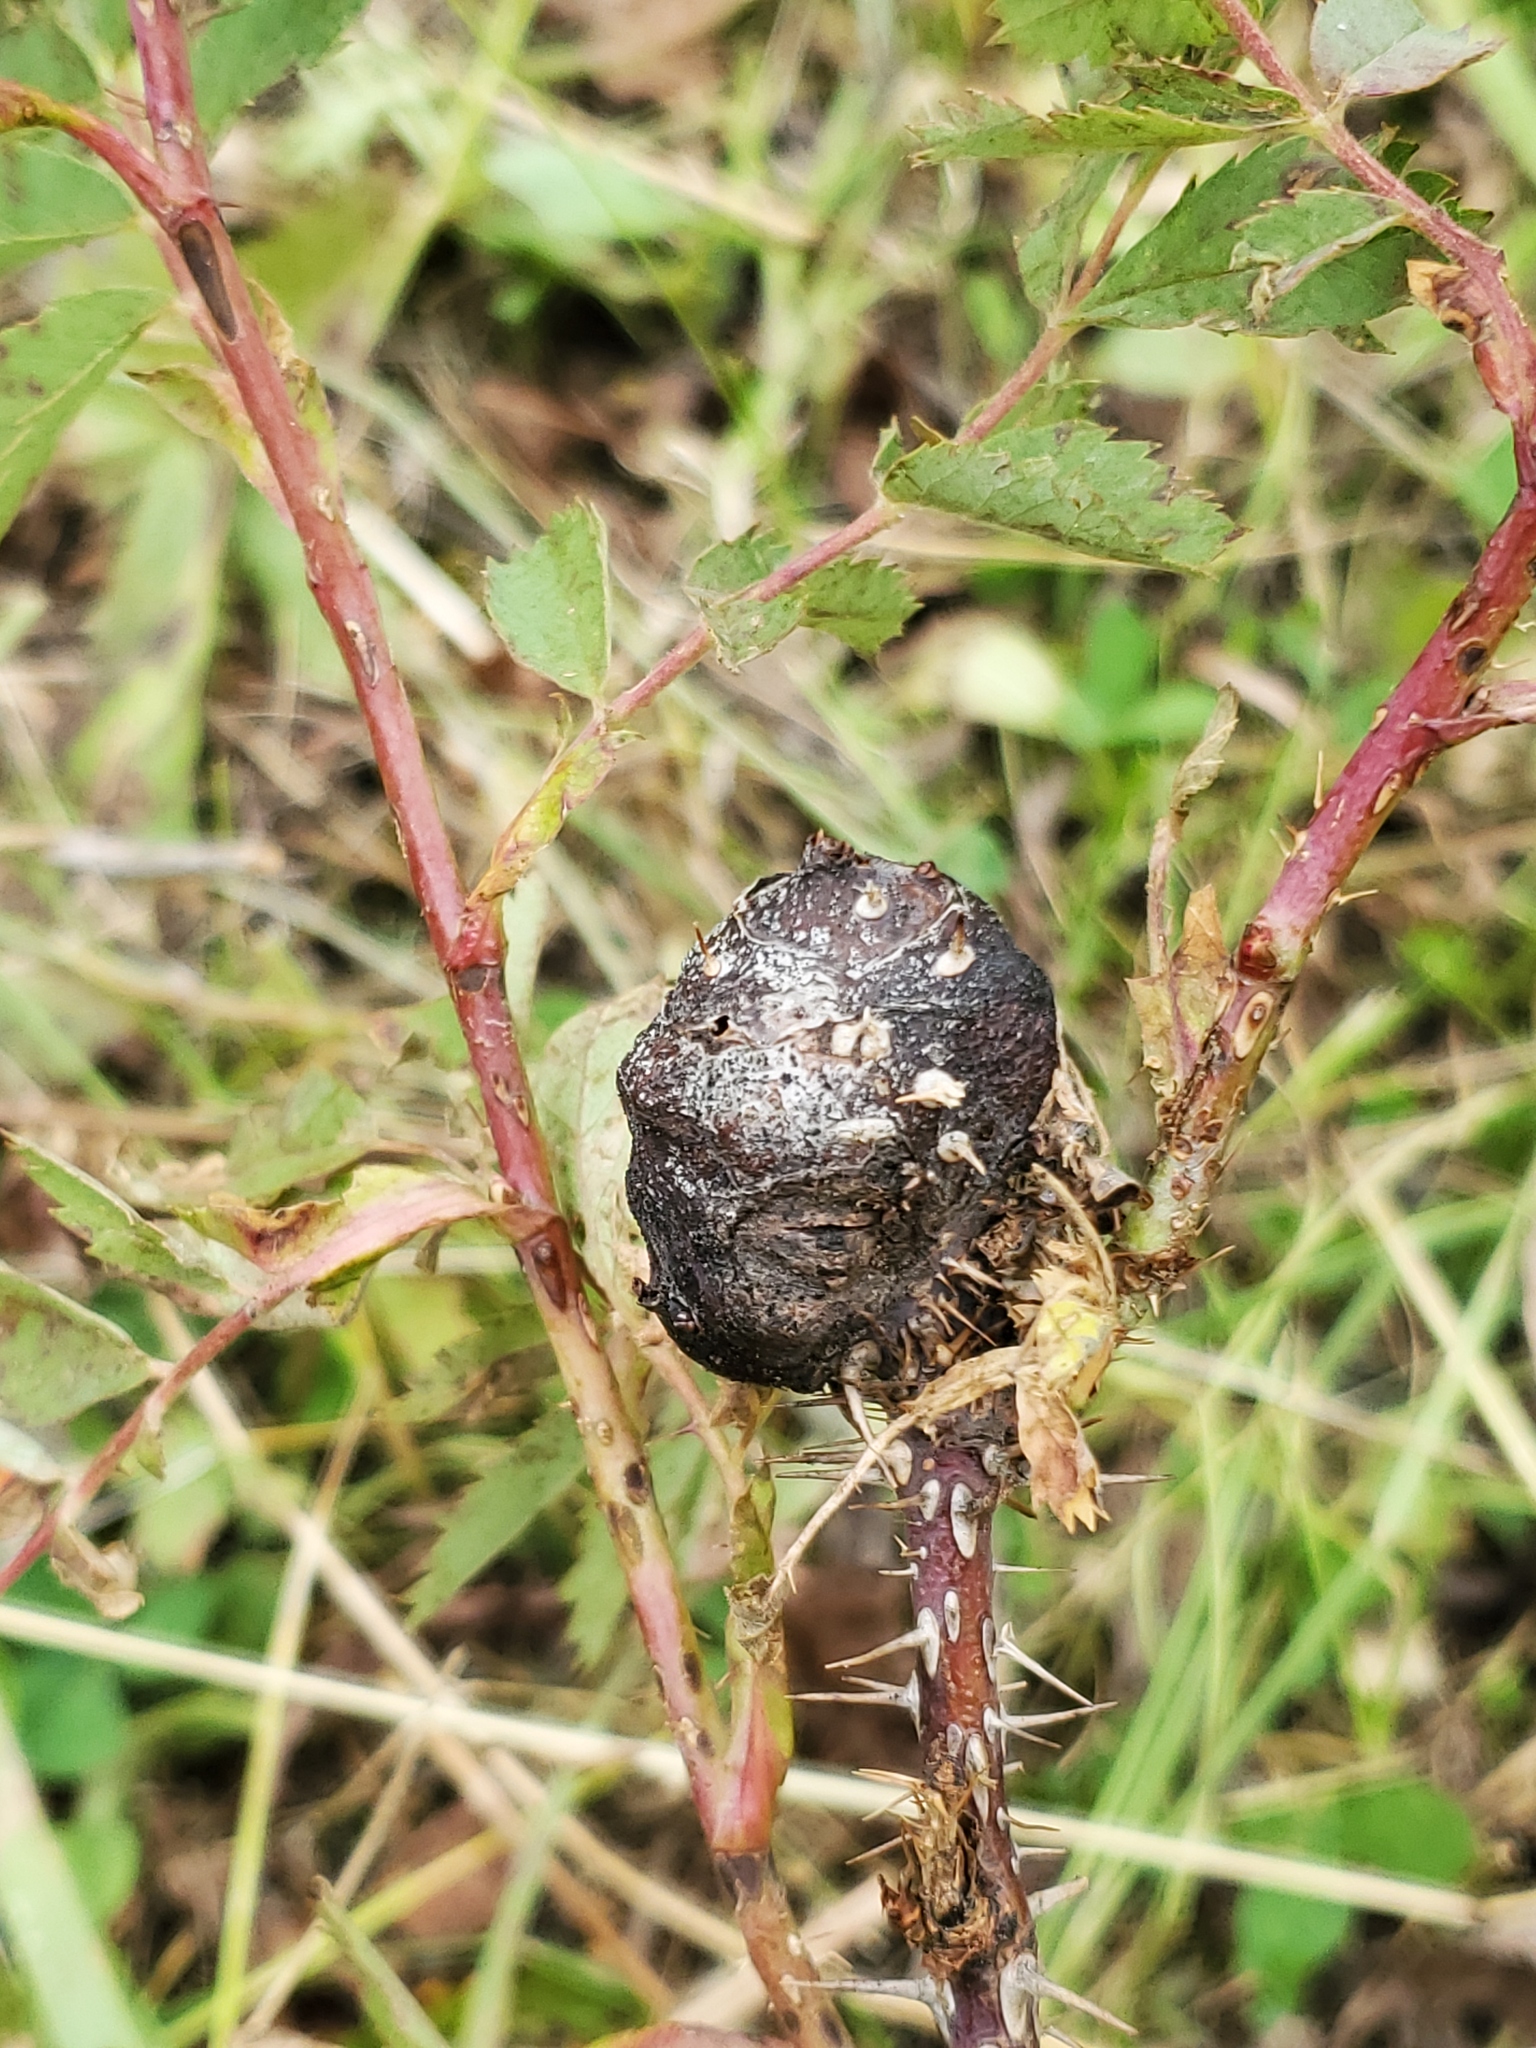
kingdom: Animalia
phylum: Arthropoda
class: Insecta
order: Hymenoptera
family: Cynipidae
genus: Diplolepis
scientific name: Diplolepis spinosa
